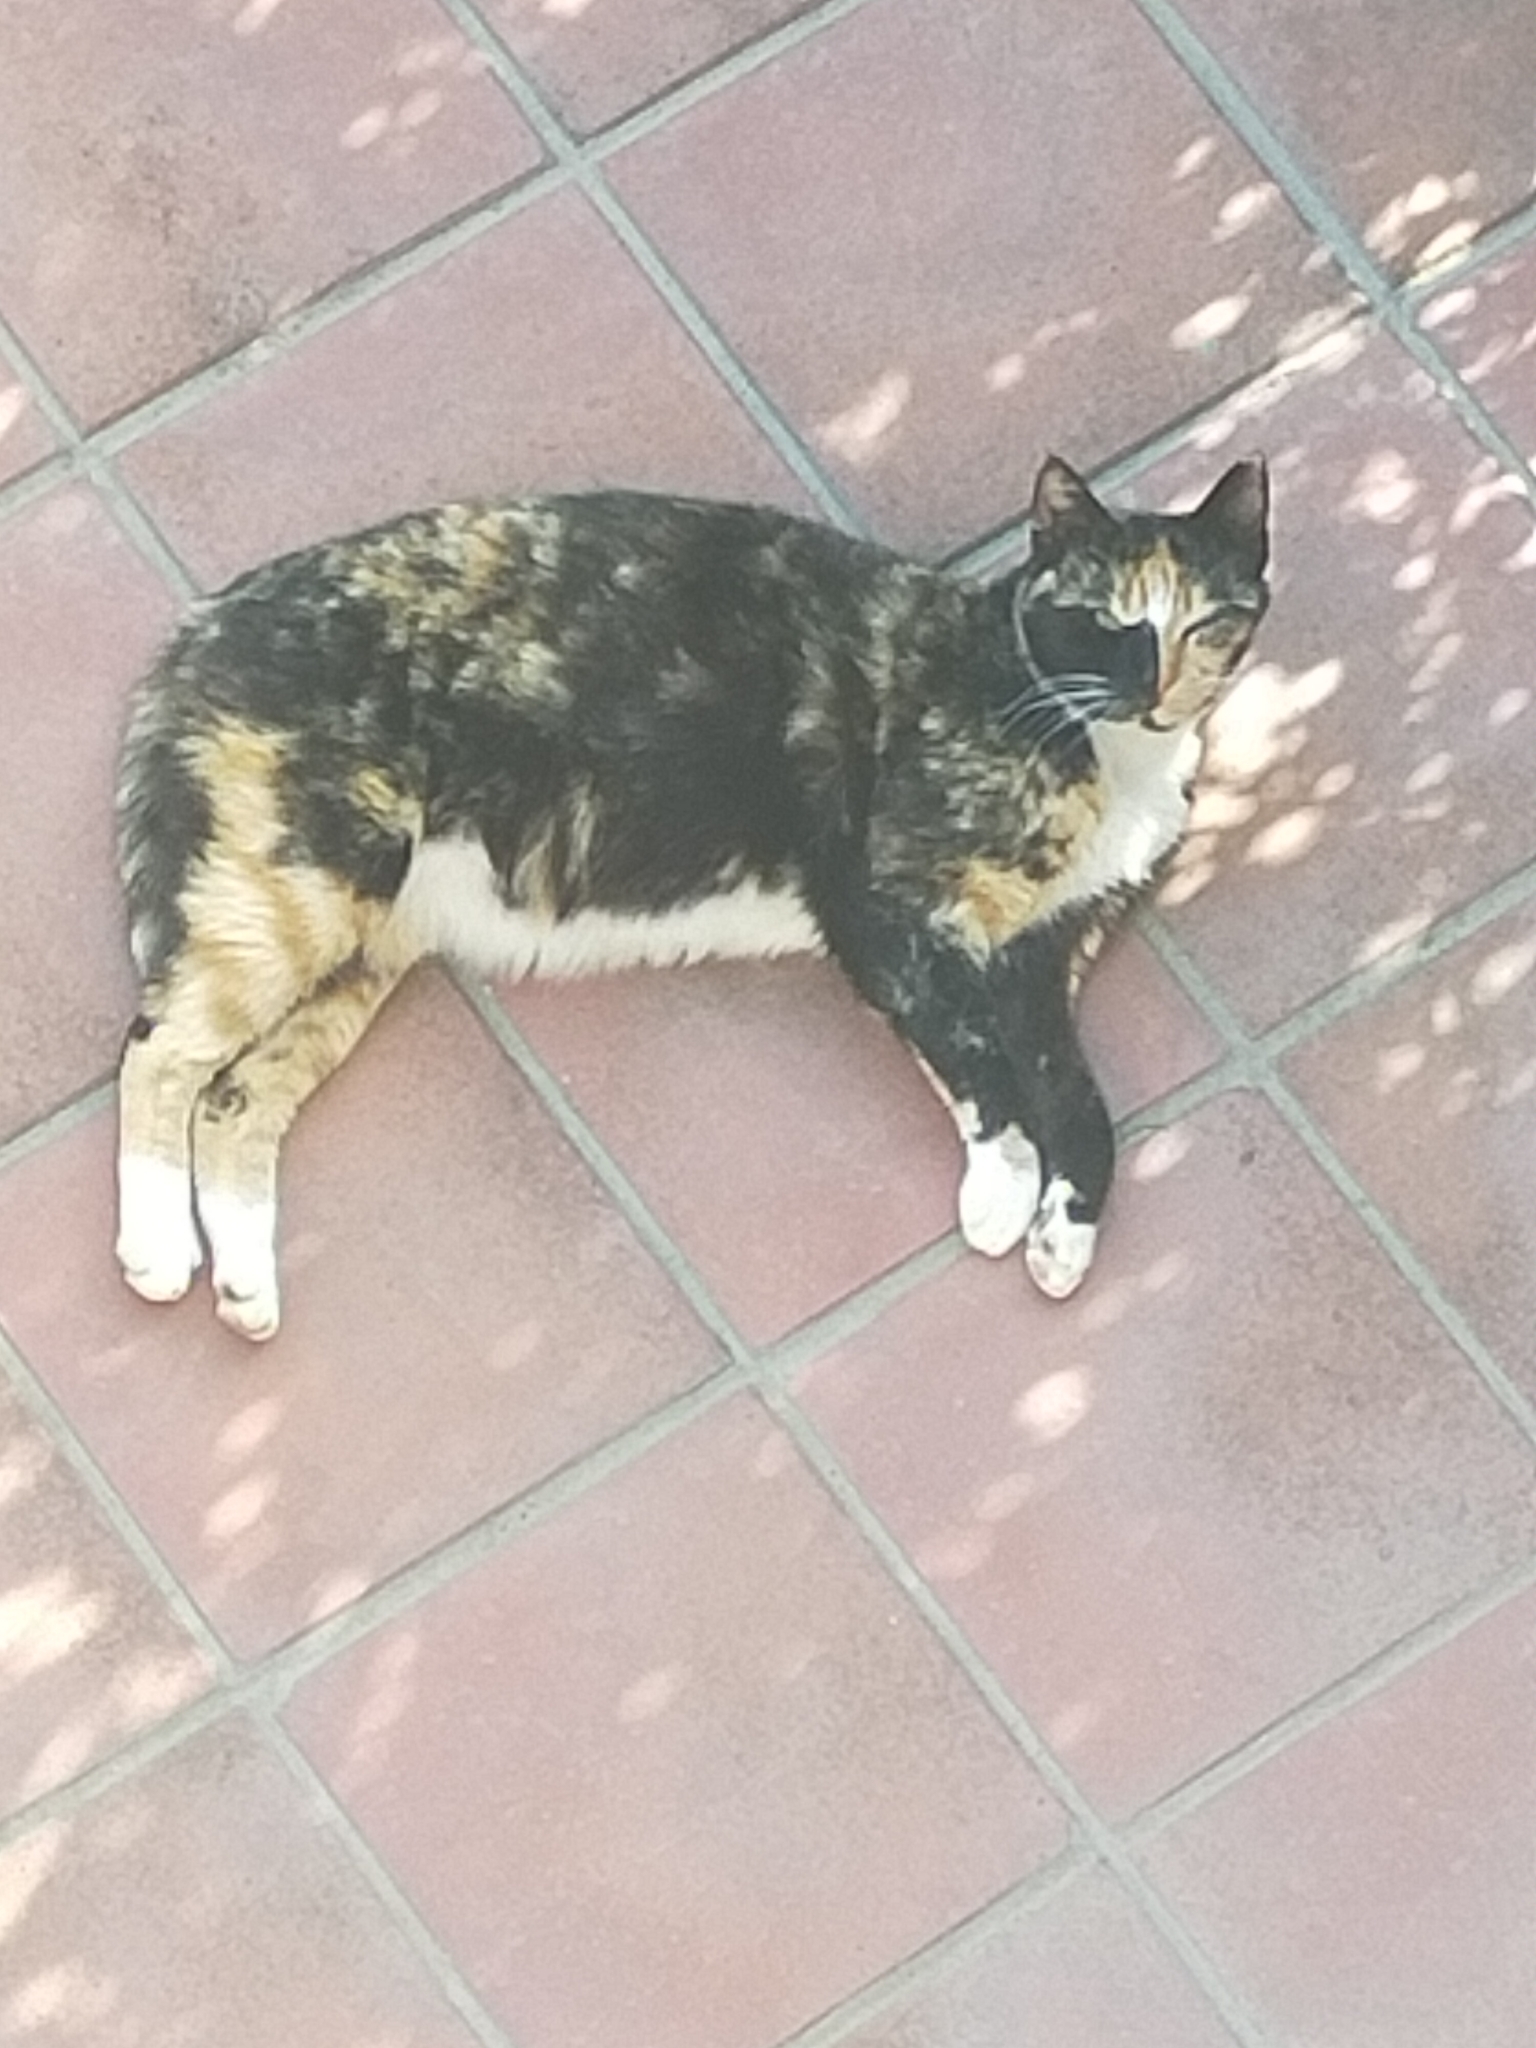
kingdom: Animalia
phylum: Chordata
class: Mammalia
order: Carnivora
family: Felidae
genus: Felis
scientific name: Felis catus
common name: Domestic cat
